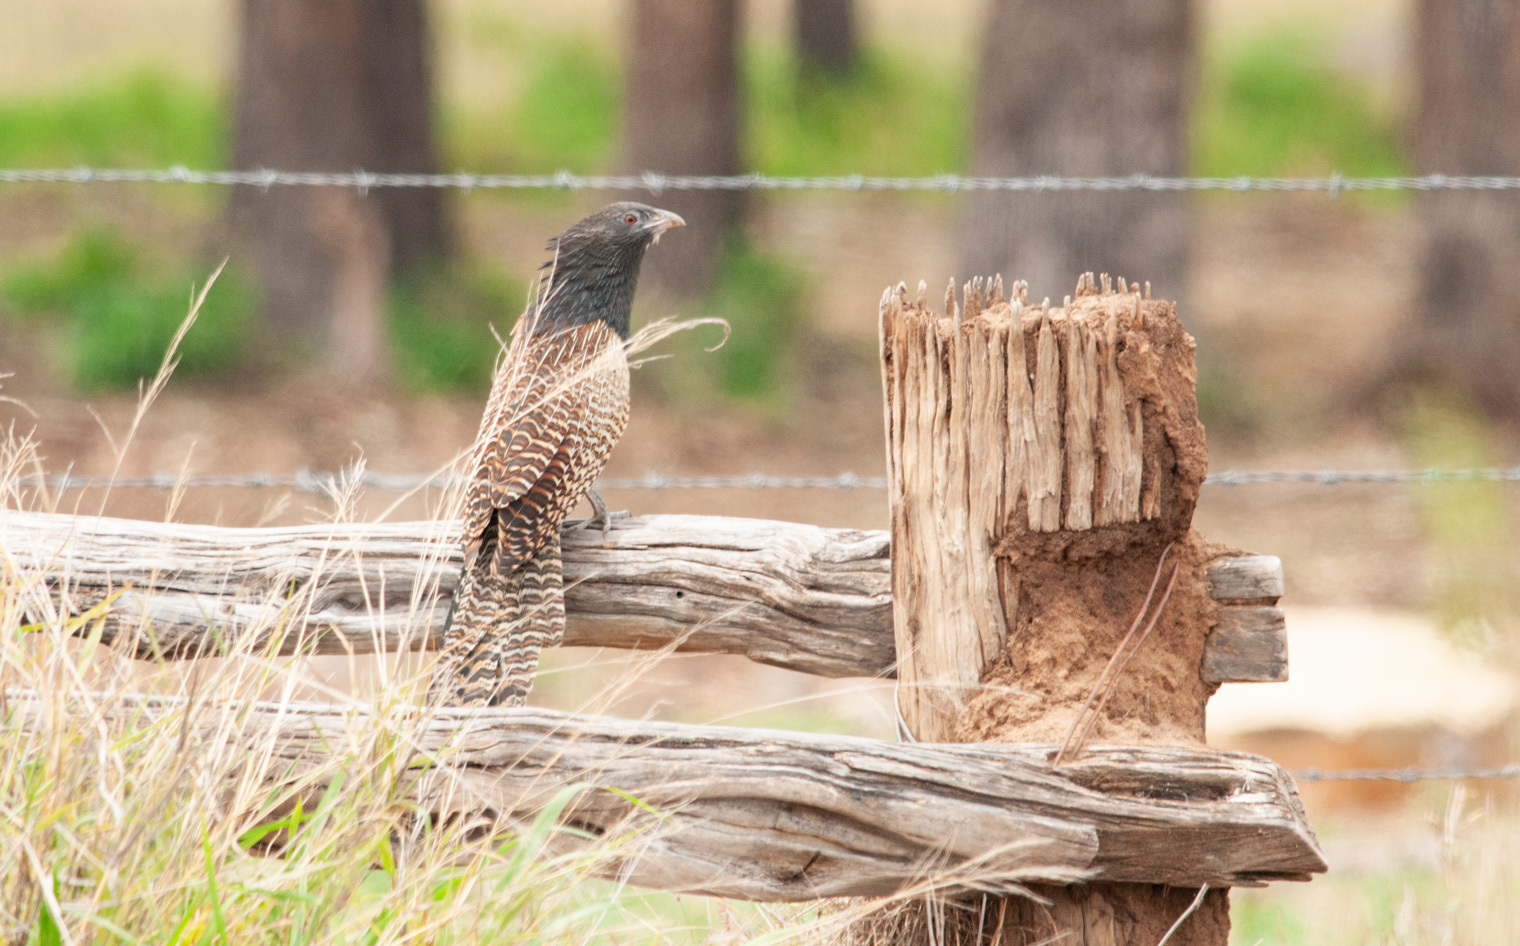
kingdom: Animalia
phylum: Chordata
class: Aves
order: Cuculiformes
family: Cuculidae
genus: Centropus
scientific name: Centropus phasianinus
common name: Pheasant coucal
